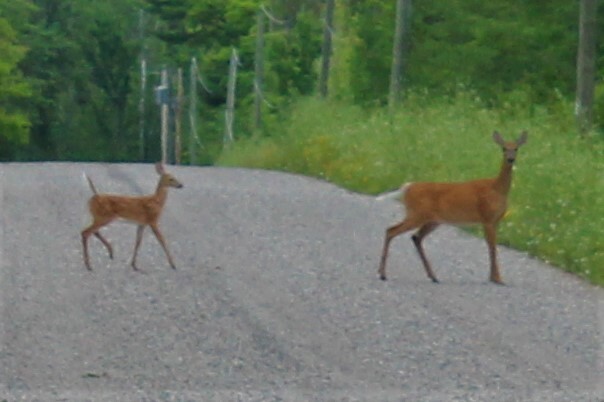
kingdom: Animalia
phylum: Chordata
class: Mammalia
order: Artiodactyla
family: Cervidae
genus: Odocoileus
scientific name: Odocoileus virginianus
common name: White-tailed deer
